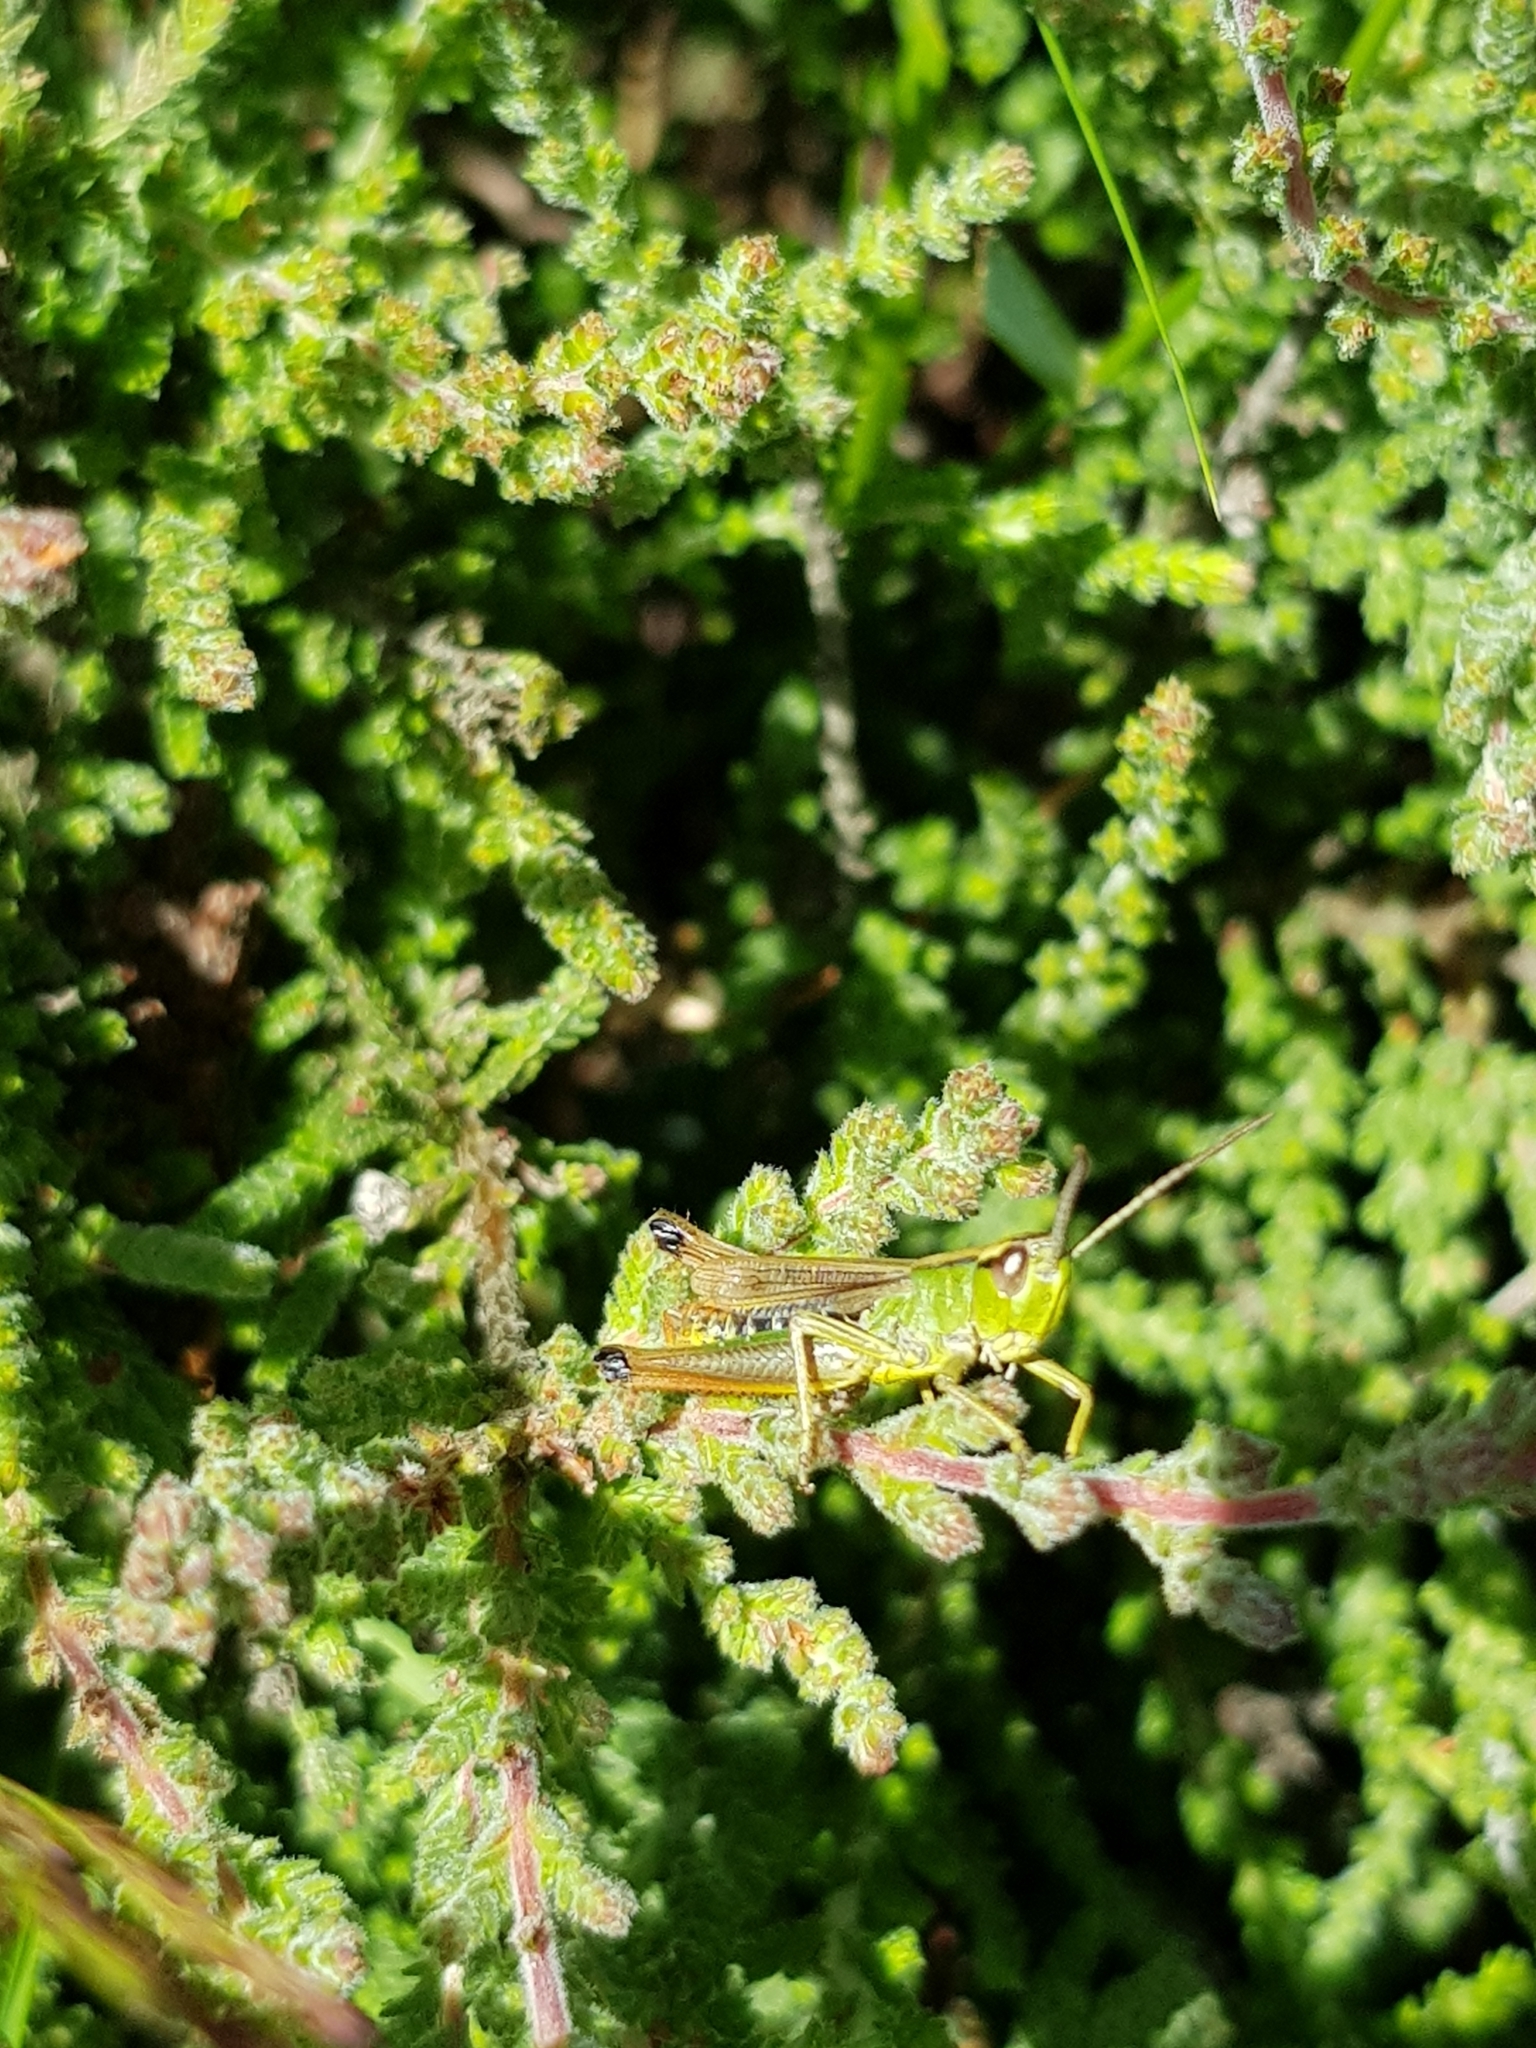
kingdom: Animalia
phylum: Arthropoda
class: Insecta
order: Orthoptera
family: Acrididae
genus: Pseudochorthippus
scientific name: Pseudochorthippus parallelus
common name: Meadow grasshopper
